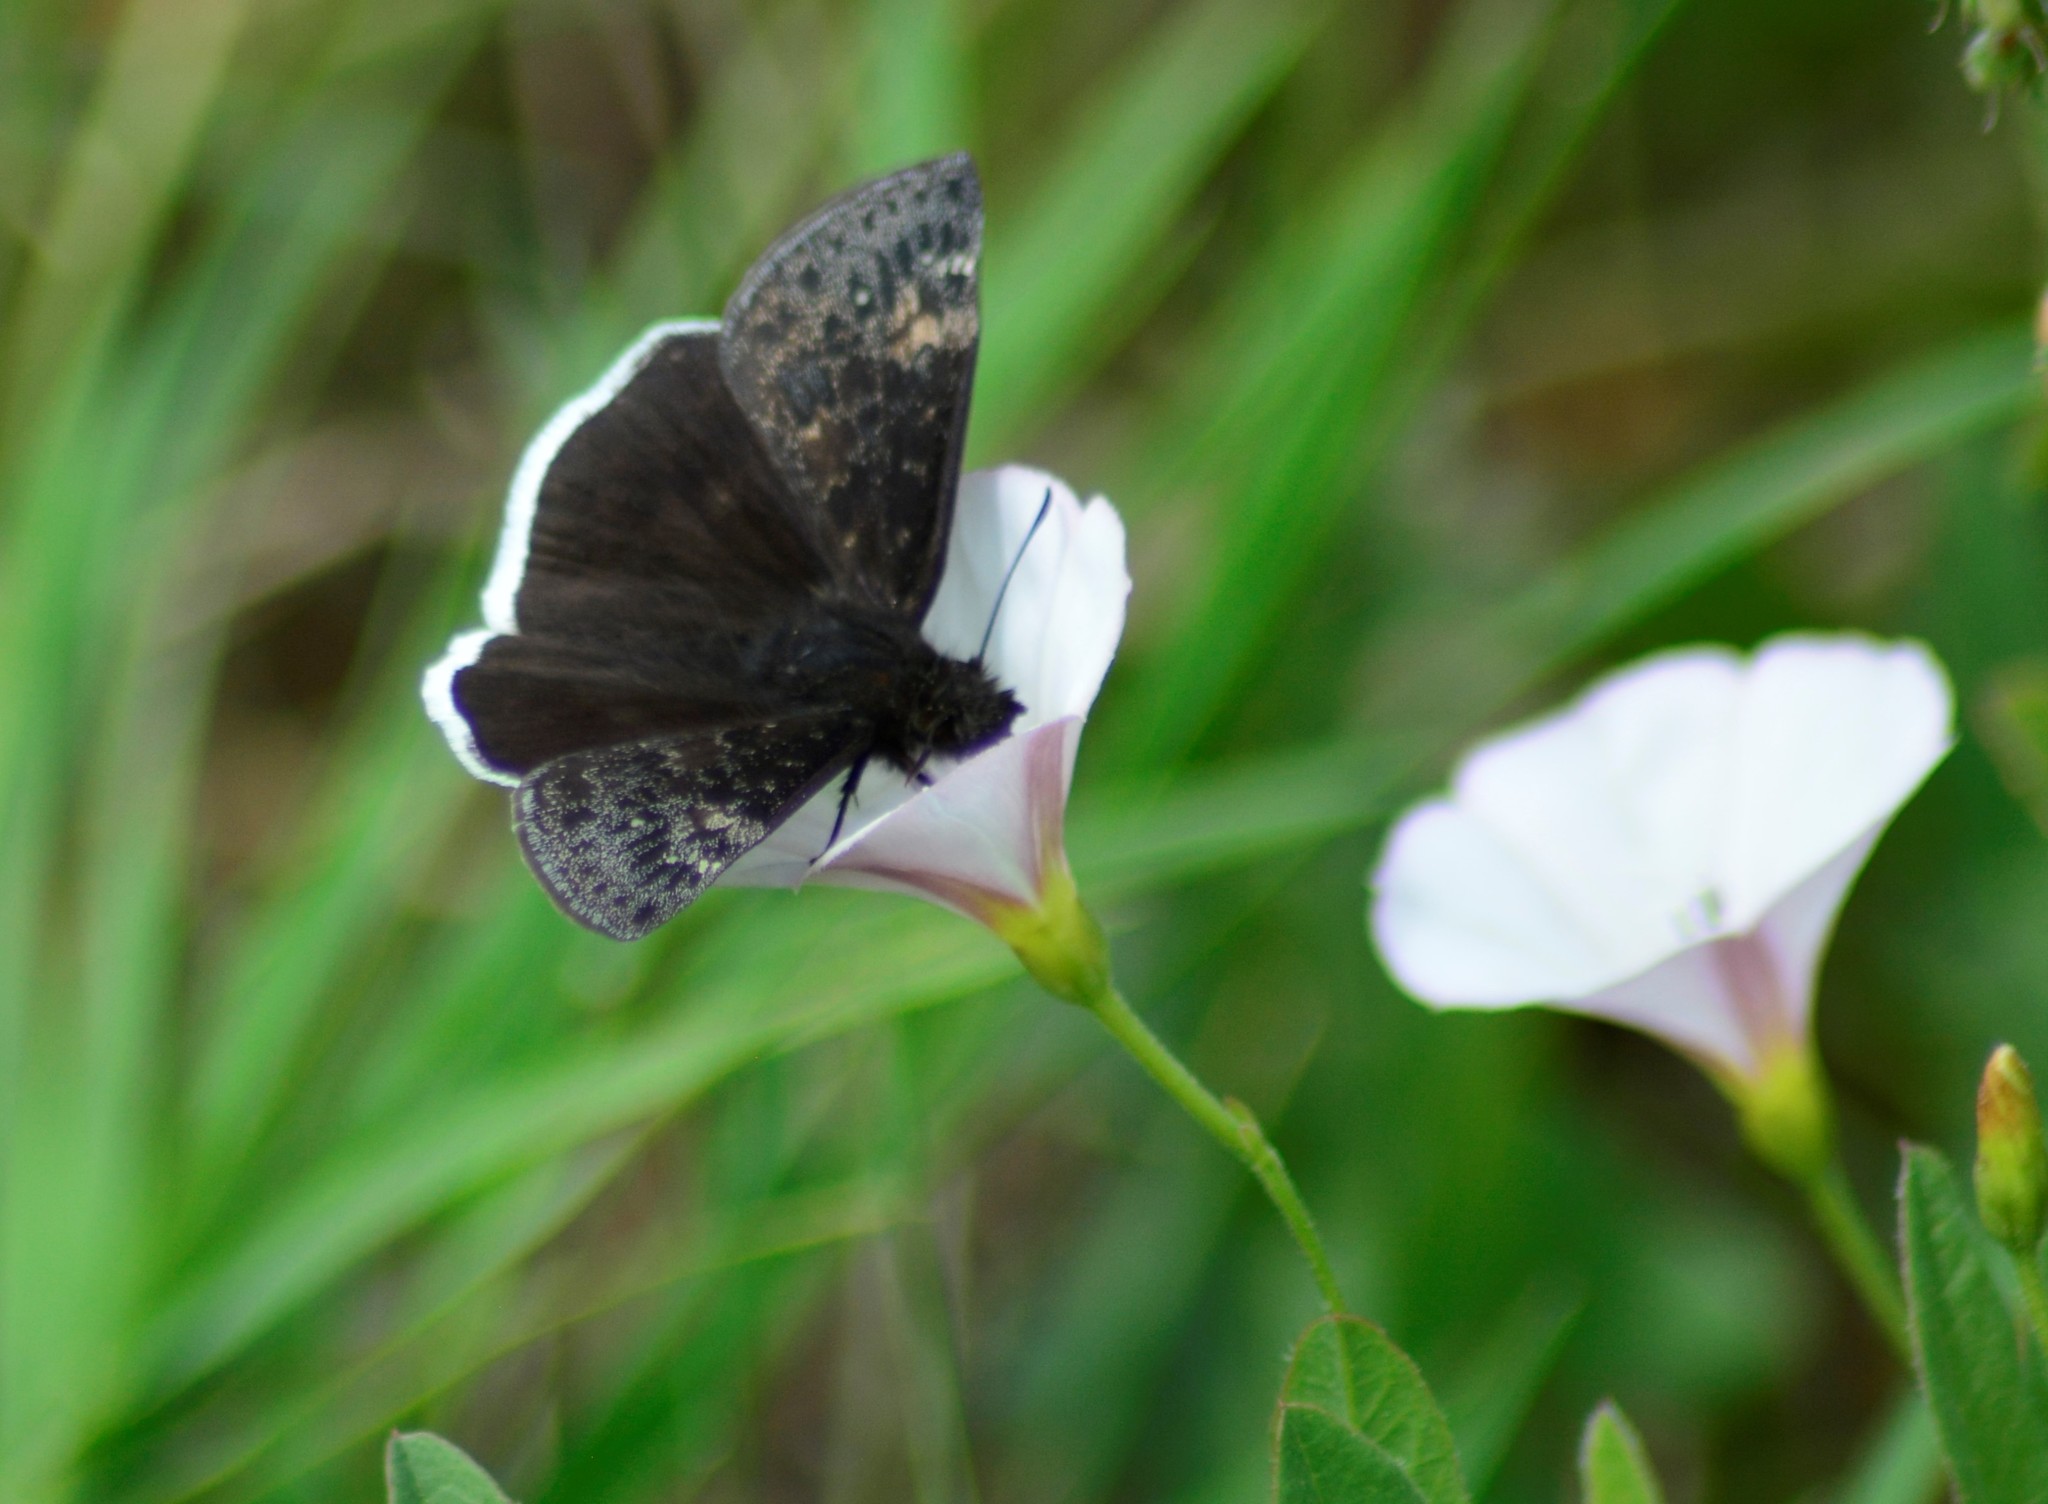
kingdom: Animalia
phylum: Arthropoda
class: Insecta
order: Lepidoptera
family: Hesperiidae
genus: Erynnis
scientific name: Erynnis funeralis
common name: Funereal duskywing
